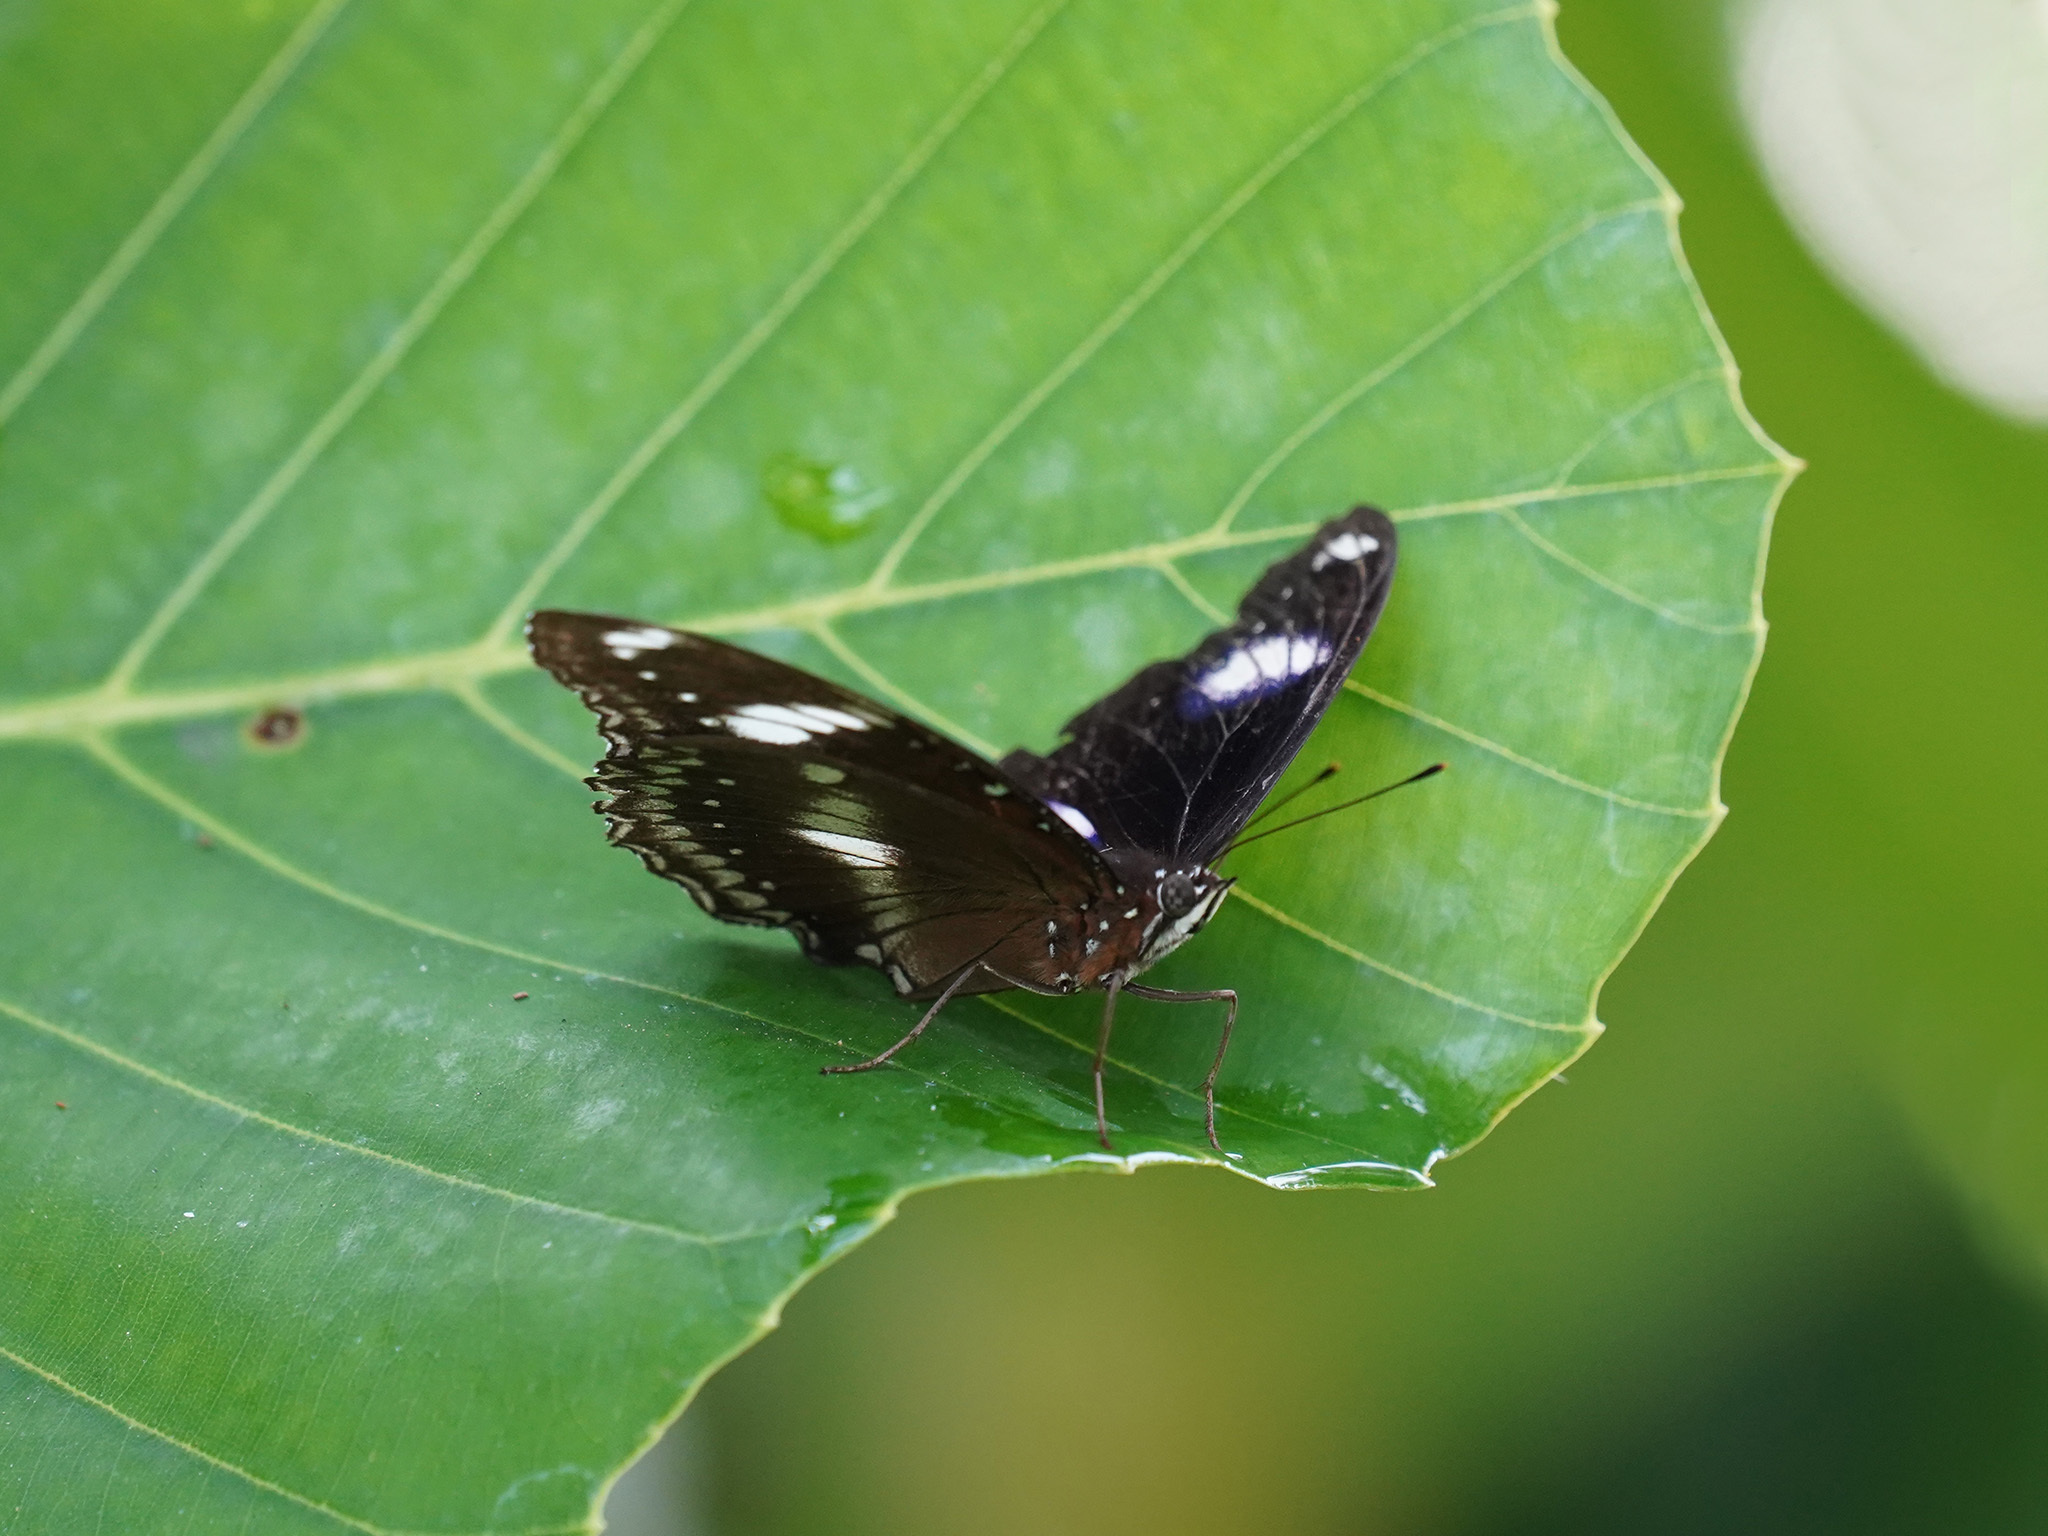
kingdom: Animalia
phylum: Arthropoda
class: Insecta
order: Lepidoptera
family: Nymphalidae
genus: Hypolimnas
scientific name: Hypolimnas bolina
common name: Great eggfly
